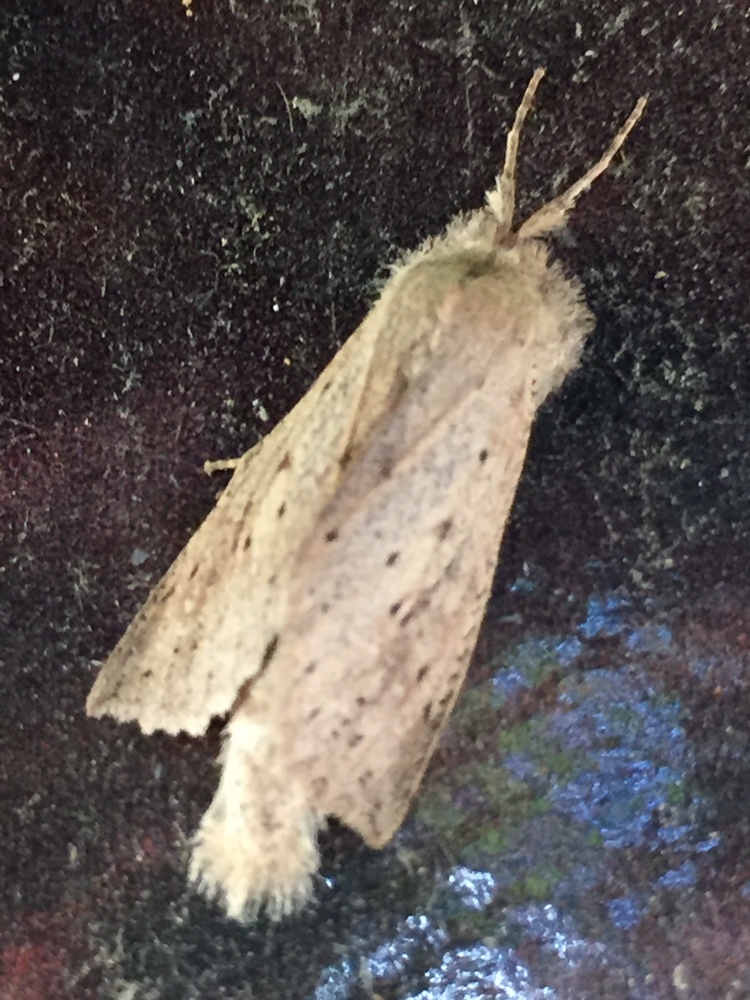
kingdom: Animalia
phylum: Arthropoda
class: Insecta
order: Lepidoptera
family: Geometridae
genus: Declana
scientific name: Declana leptomera
